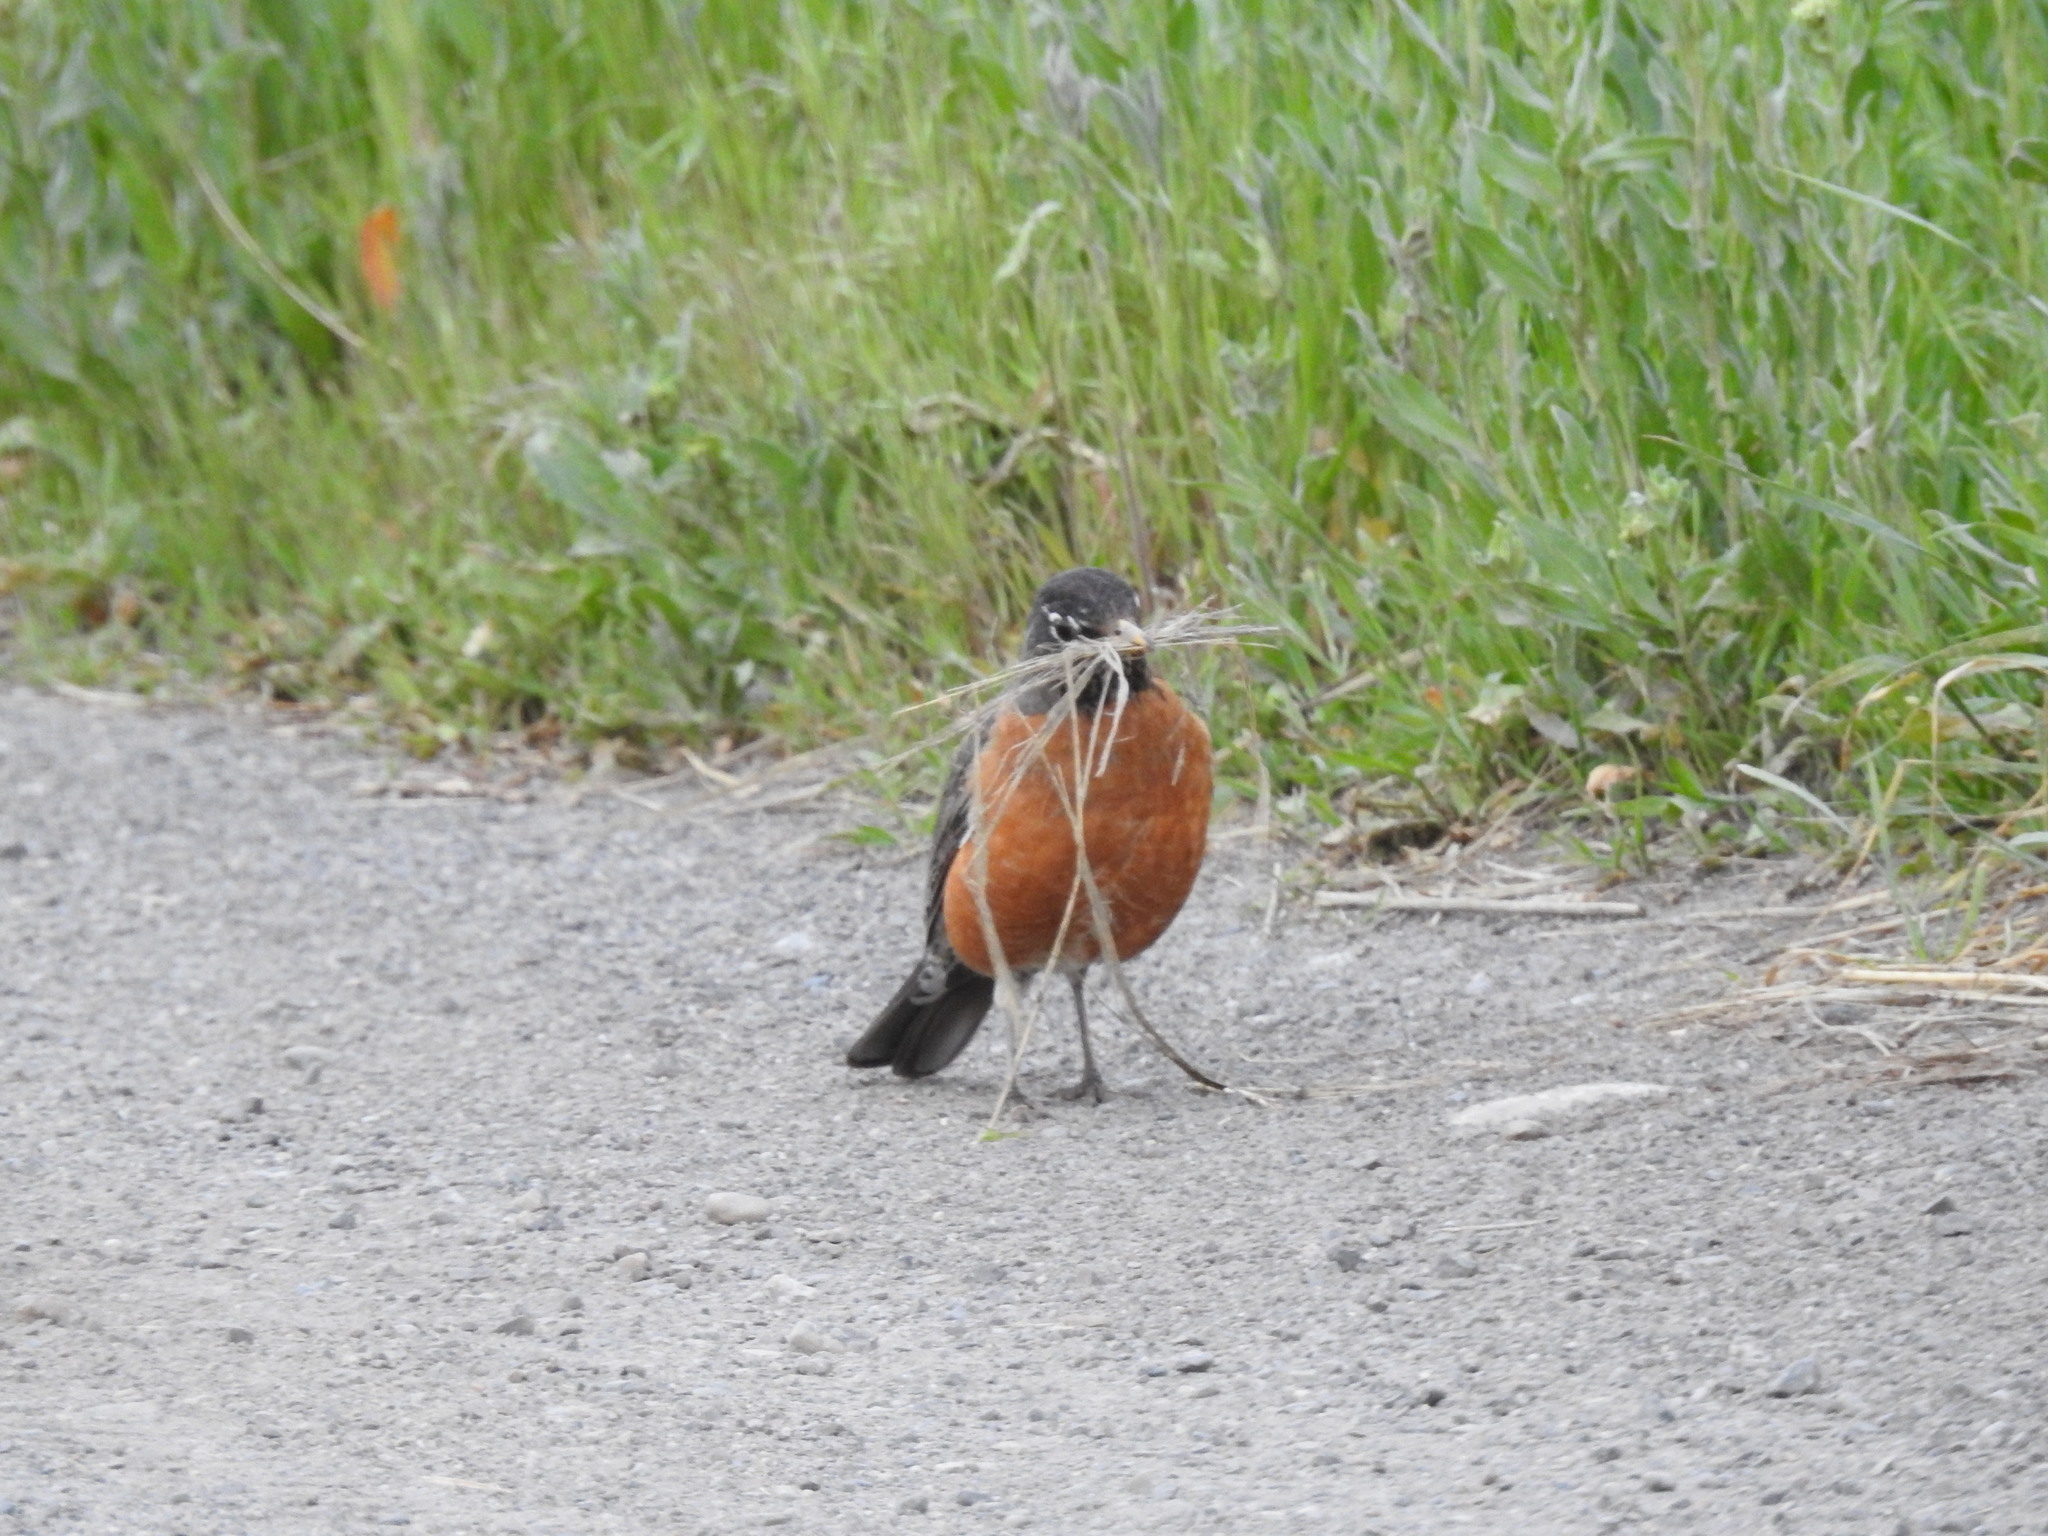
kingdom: Animalia
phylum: Chordata
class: Aves
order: Passeriformes
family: Turdidae
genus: Turdus
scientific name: Turdus migratorius
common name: American robin
